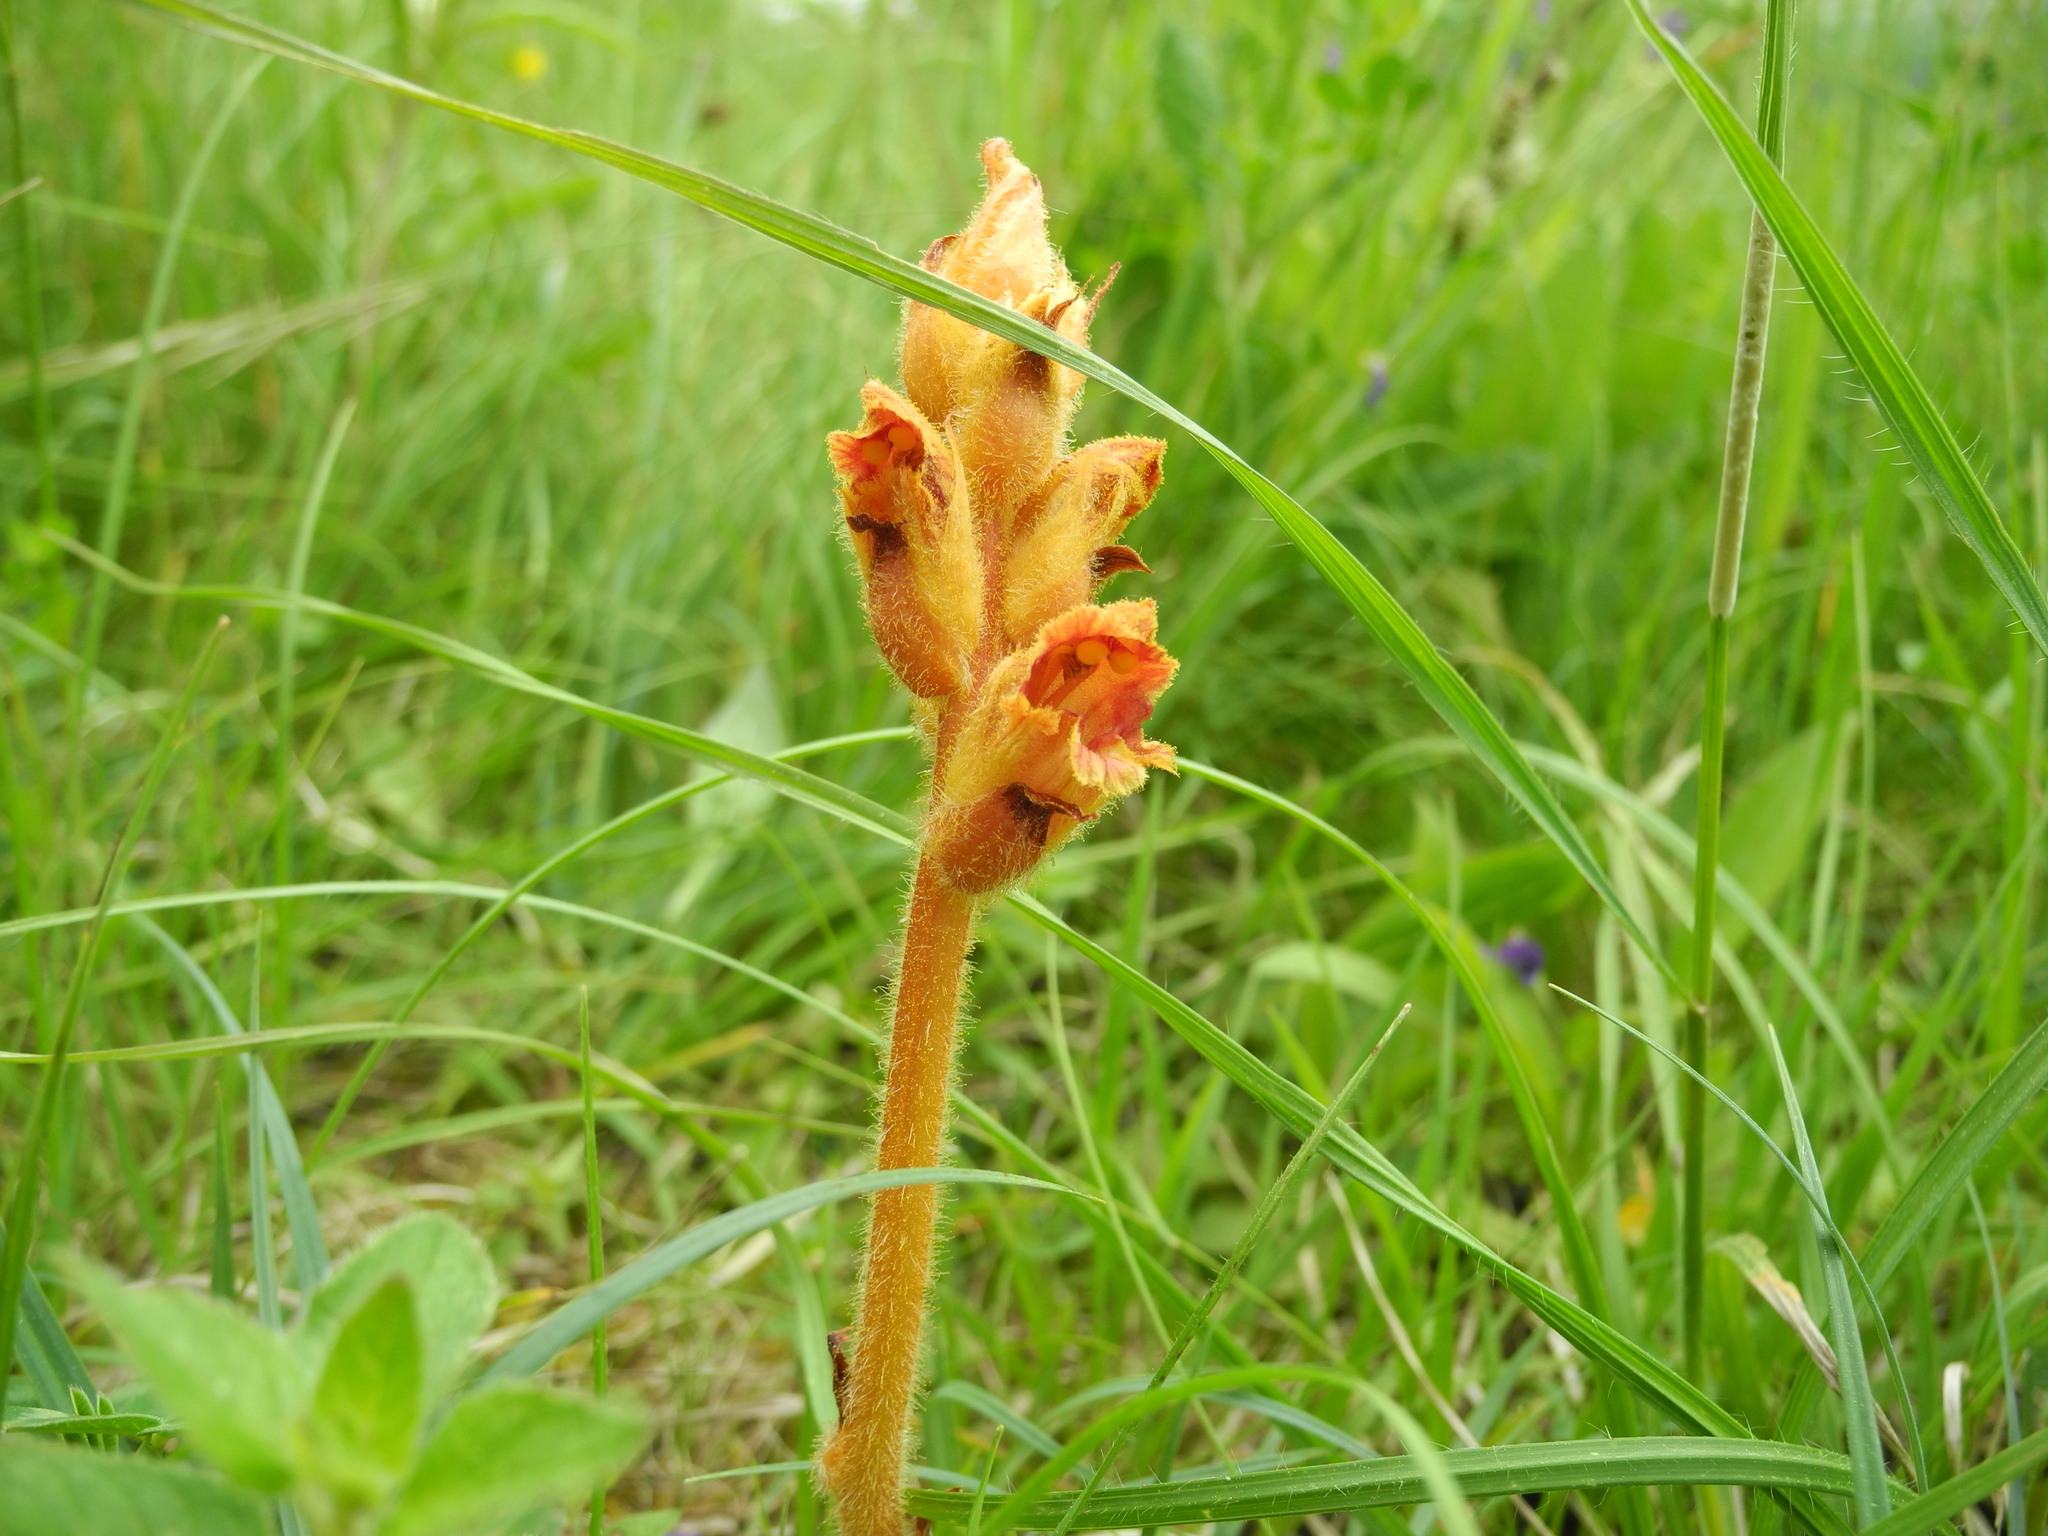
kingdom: Plantae
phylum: Tracheophyta
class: Magnoliopsida
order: Lamiales
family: Orobanchaceae
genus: Orobanche
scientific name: Orobanche gracilis
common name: Slender broomrape
